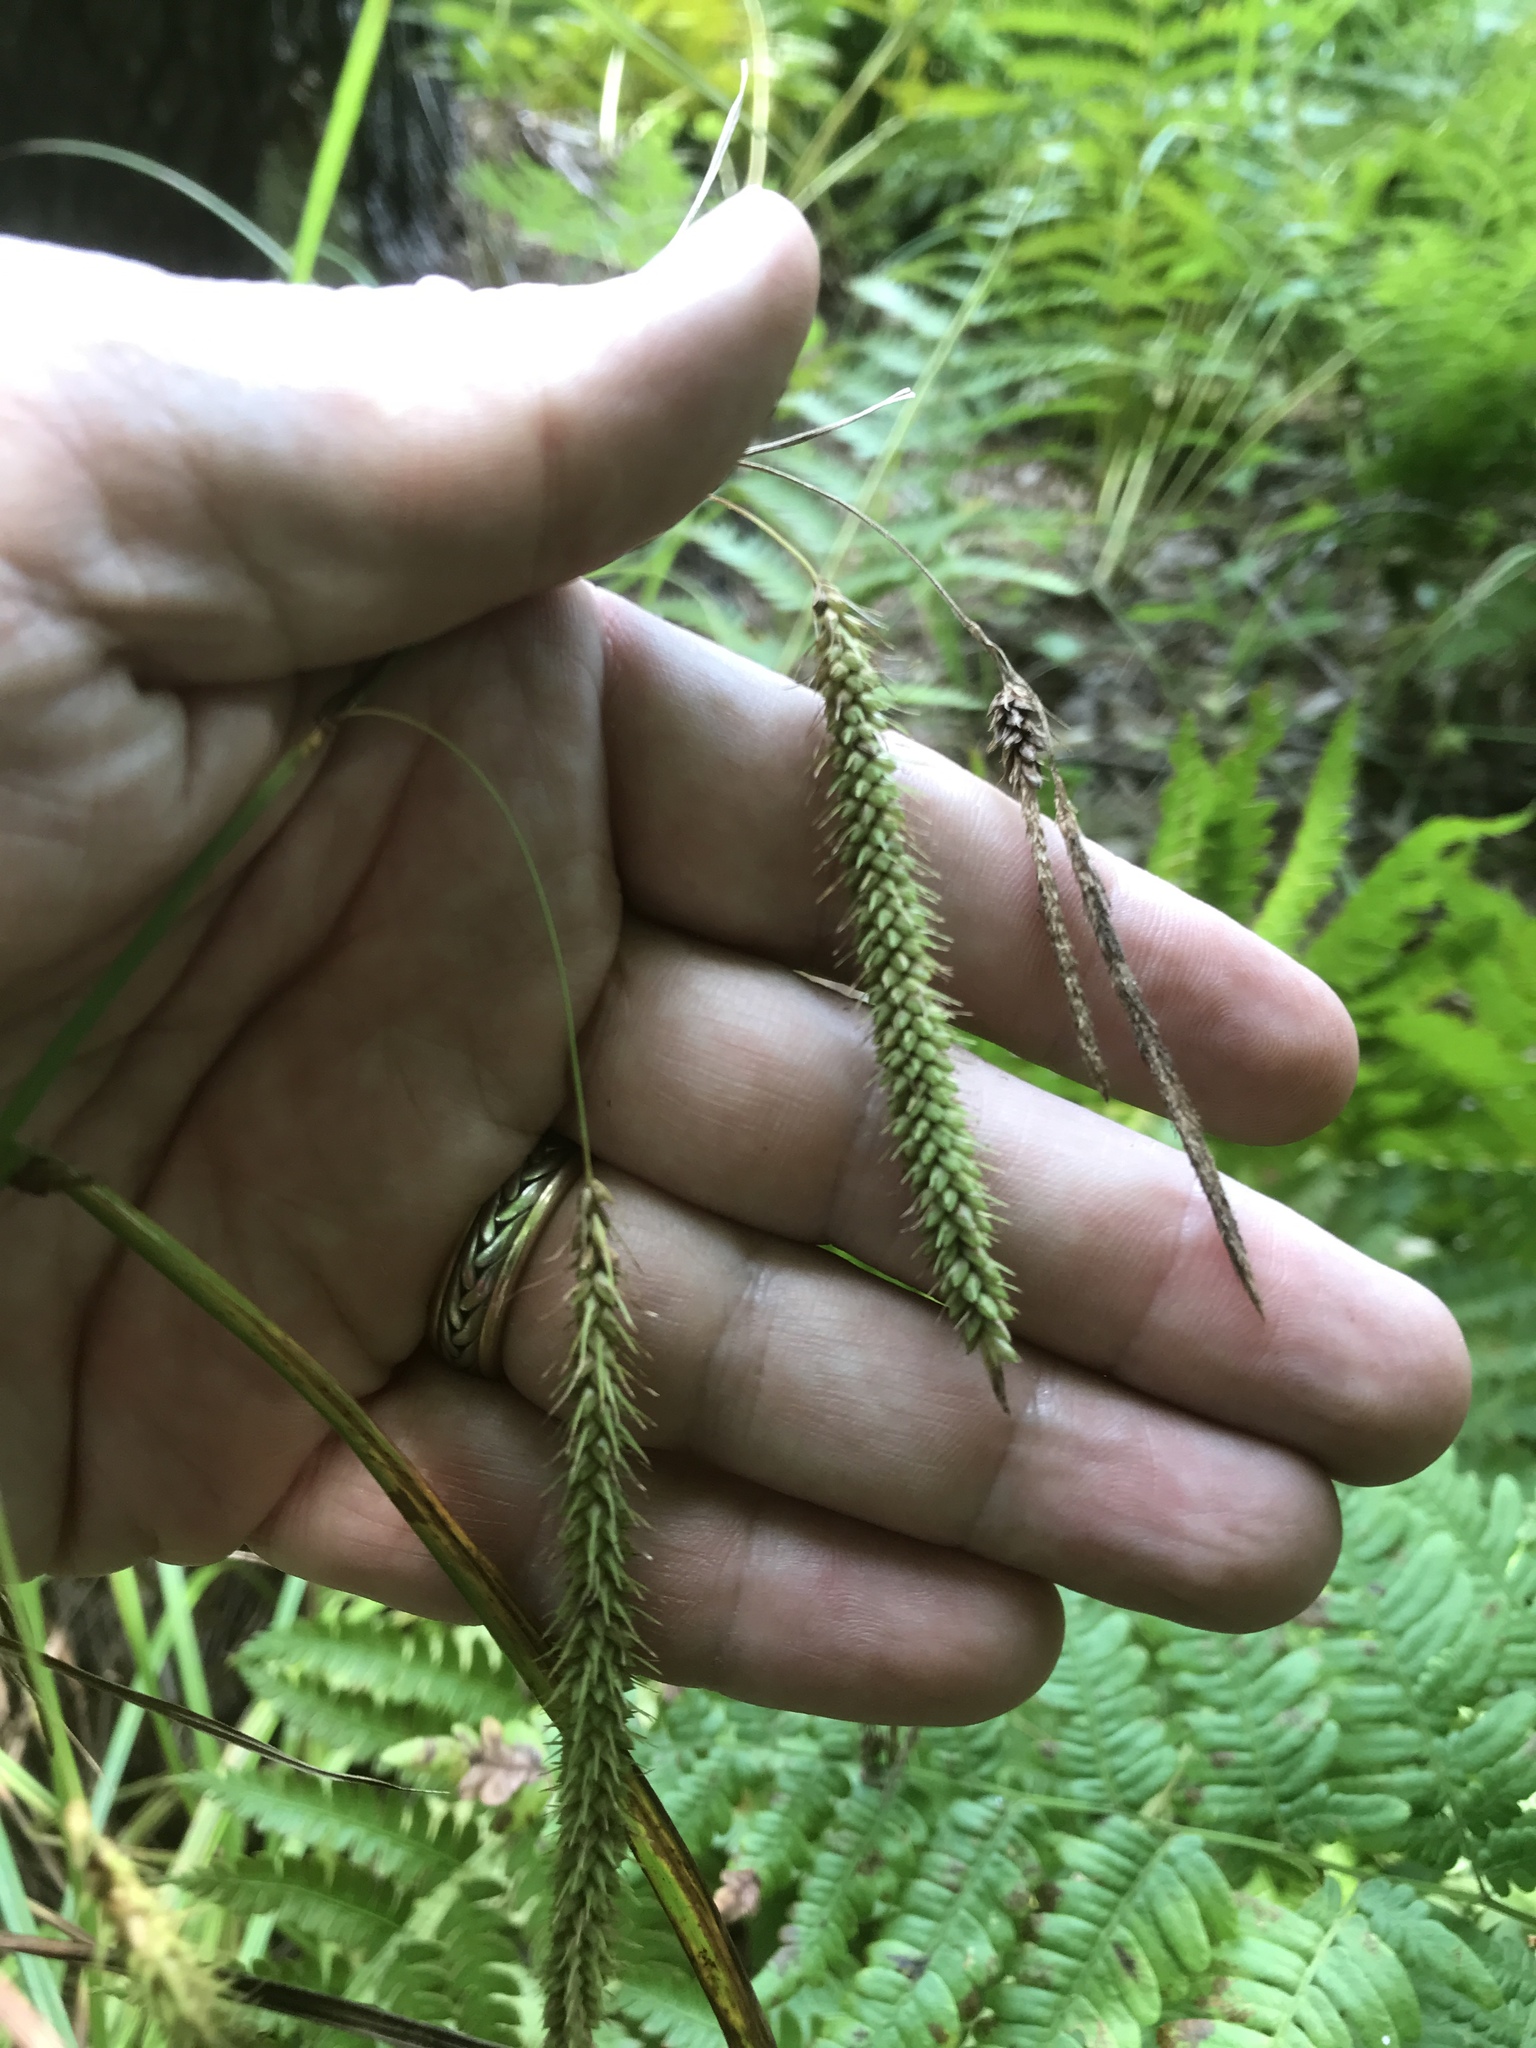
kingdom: Plantae
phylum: Tracheophyta
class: Liliopsida
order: Poales
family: Cyperaceae
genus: Carex
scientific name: Carex gynandra
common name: Nodding sedge
